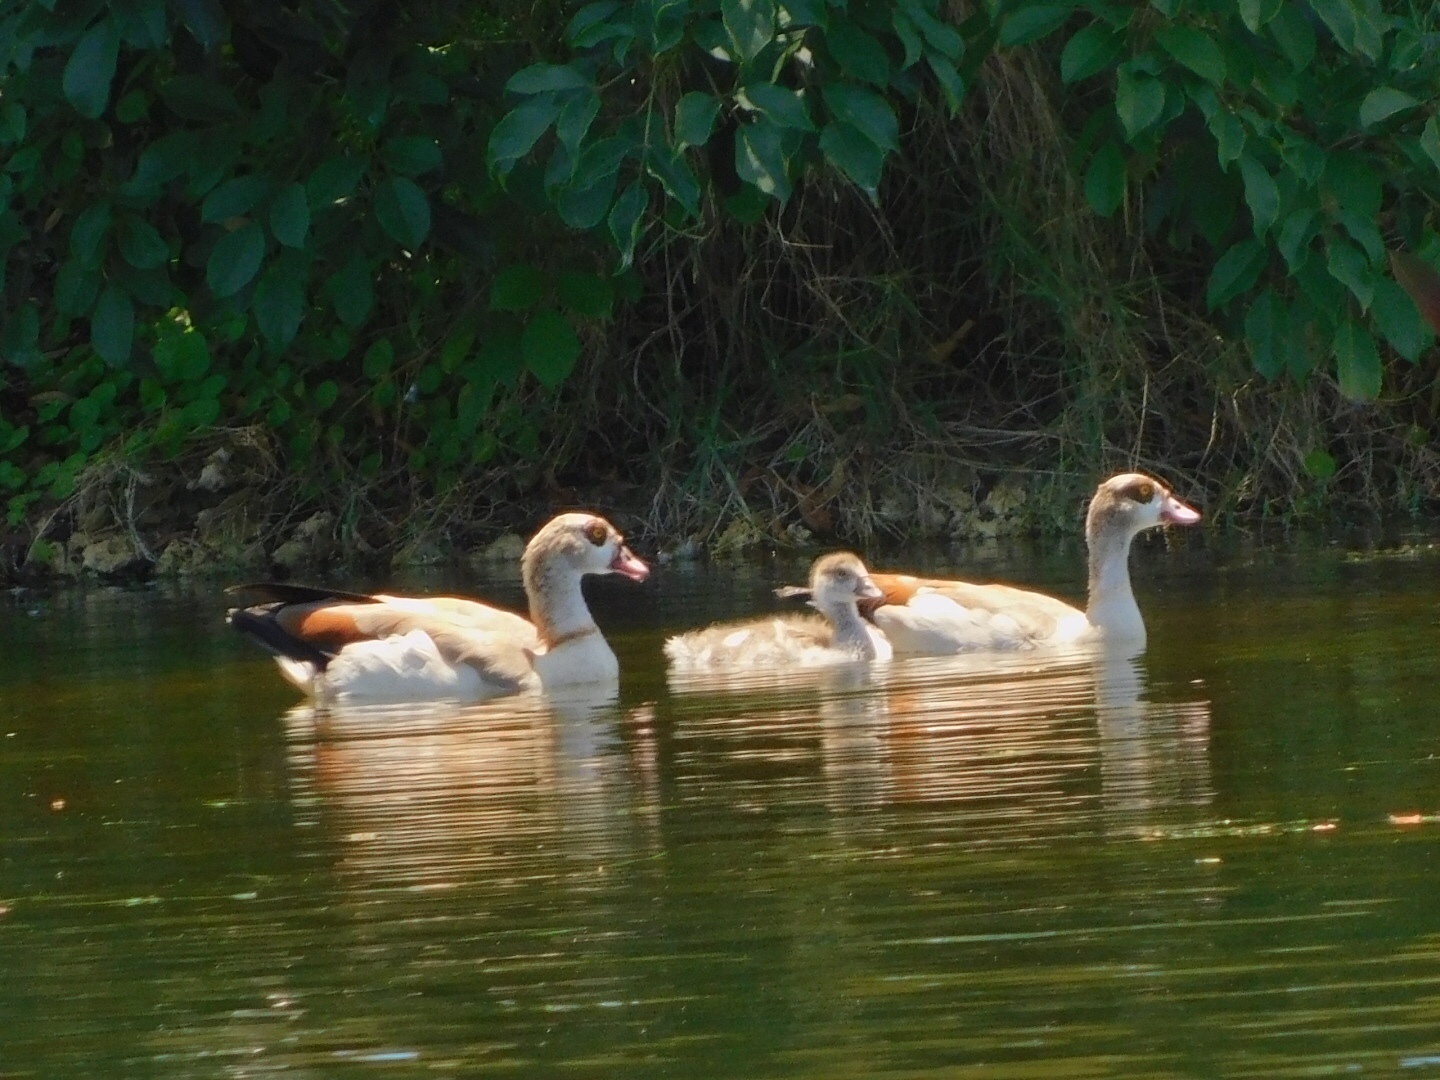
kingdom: Animalia
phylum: Chordata
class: Aves
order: Anseriformes
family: Anatidae
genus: Alopochen
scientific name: Alopochen aegyptiaca
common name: Egyptian goose
